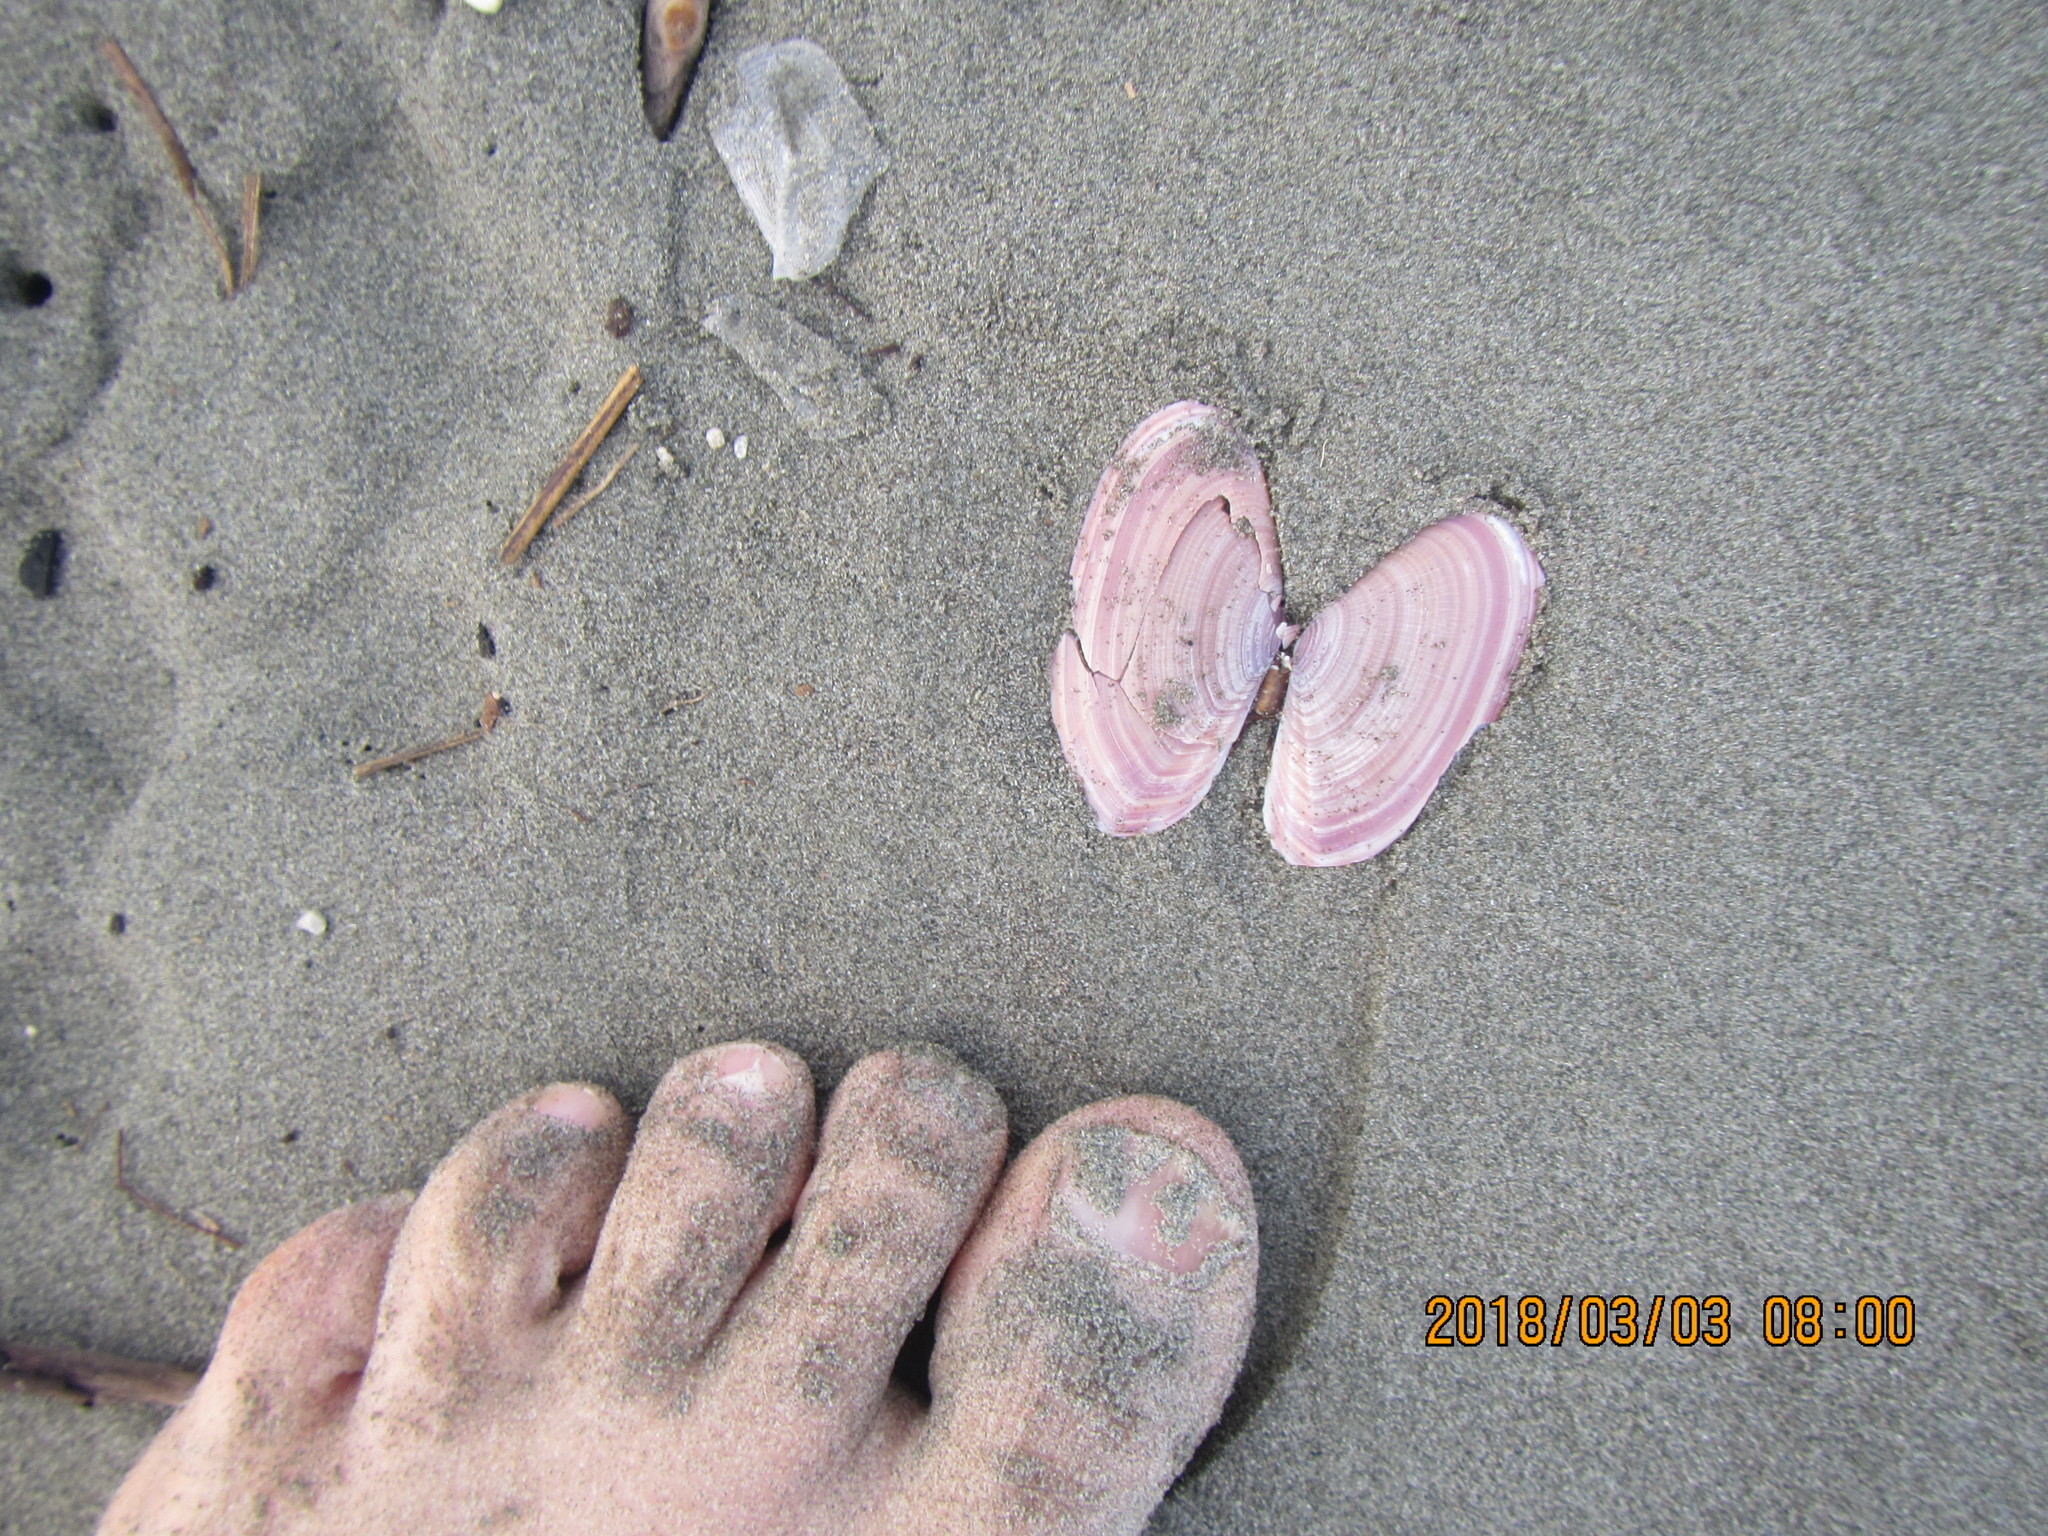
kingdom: Animalia
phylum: Mollusca
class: Bivalvia
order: Cardiida
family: Psammobiidae
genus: Gari
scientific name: Gari lineolata
